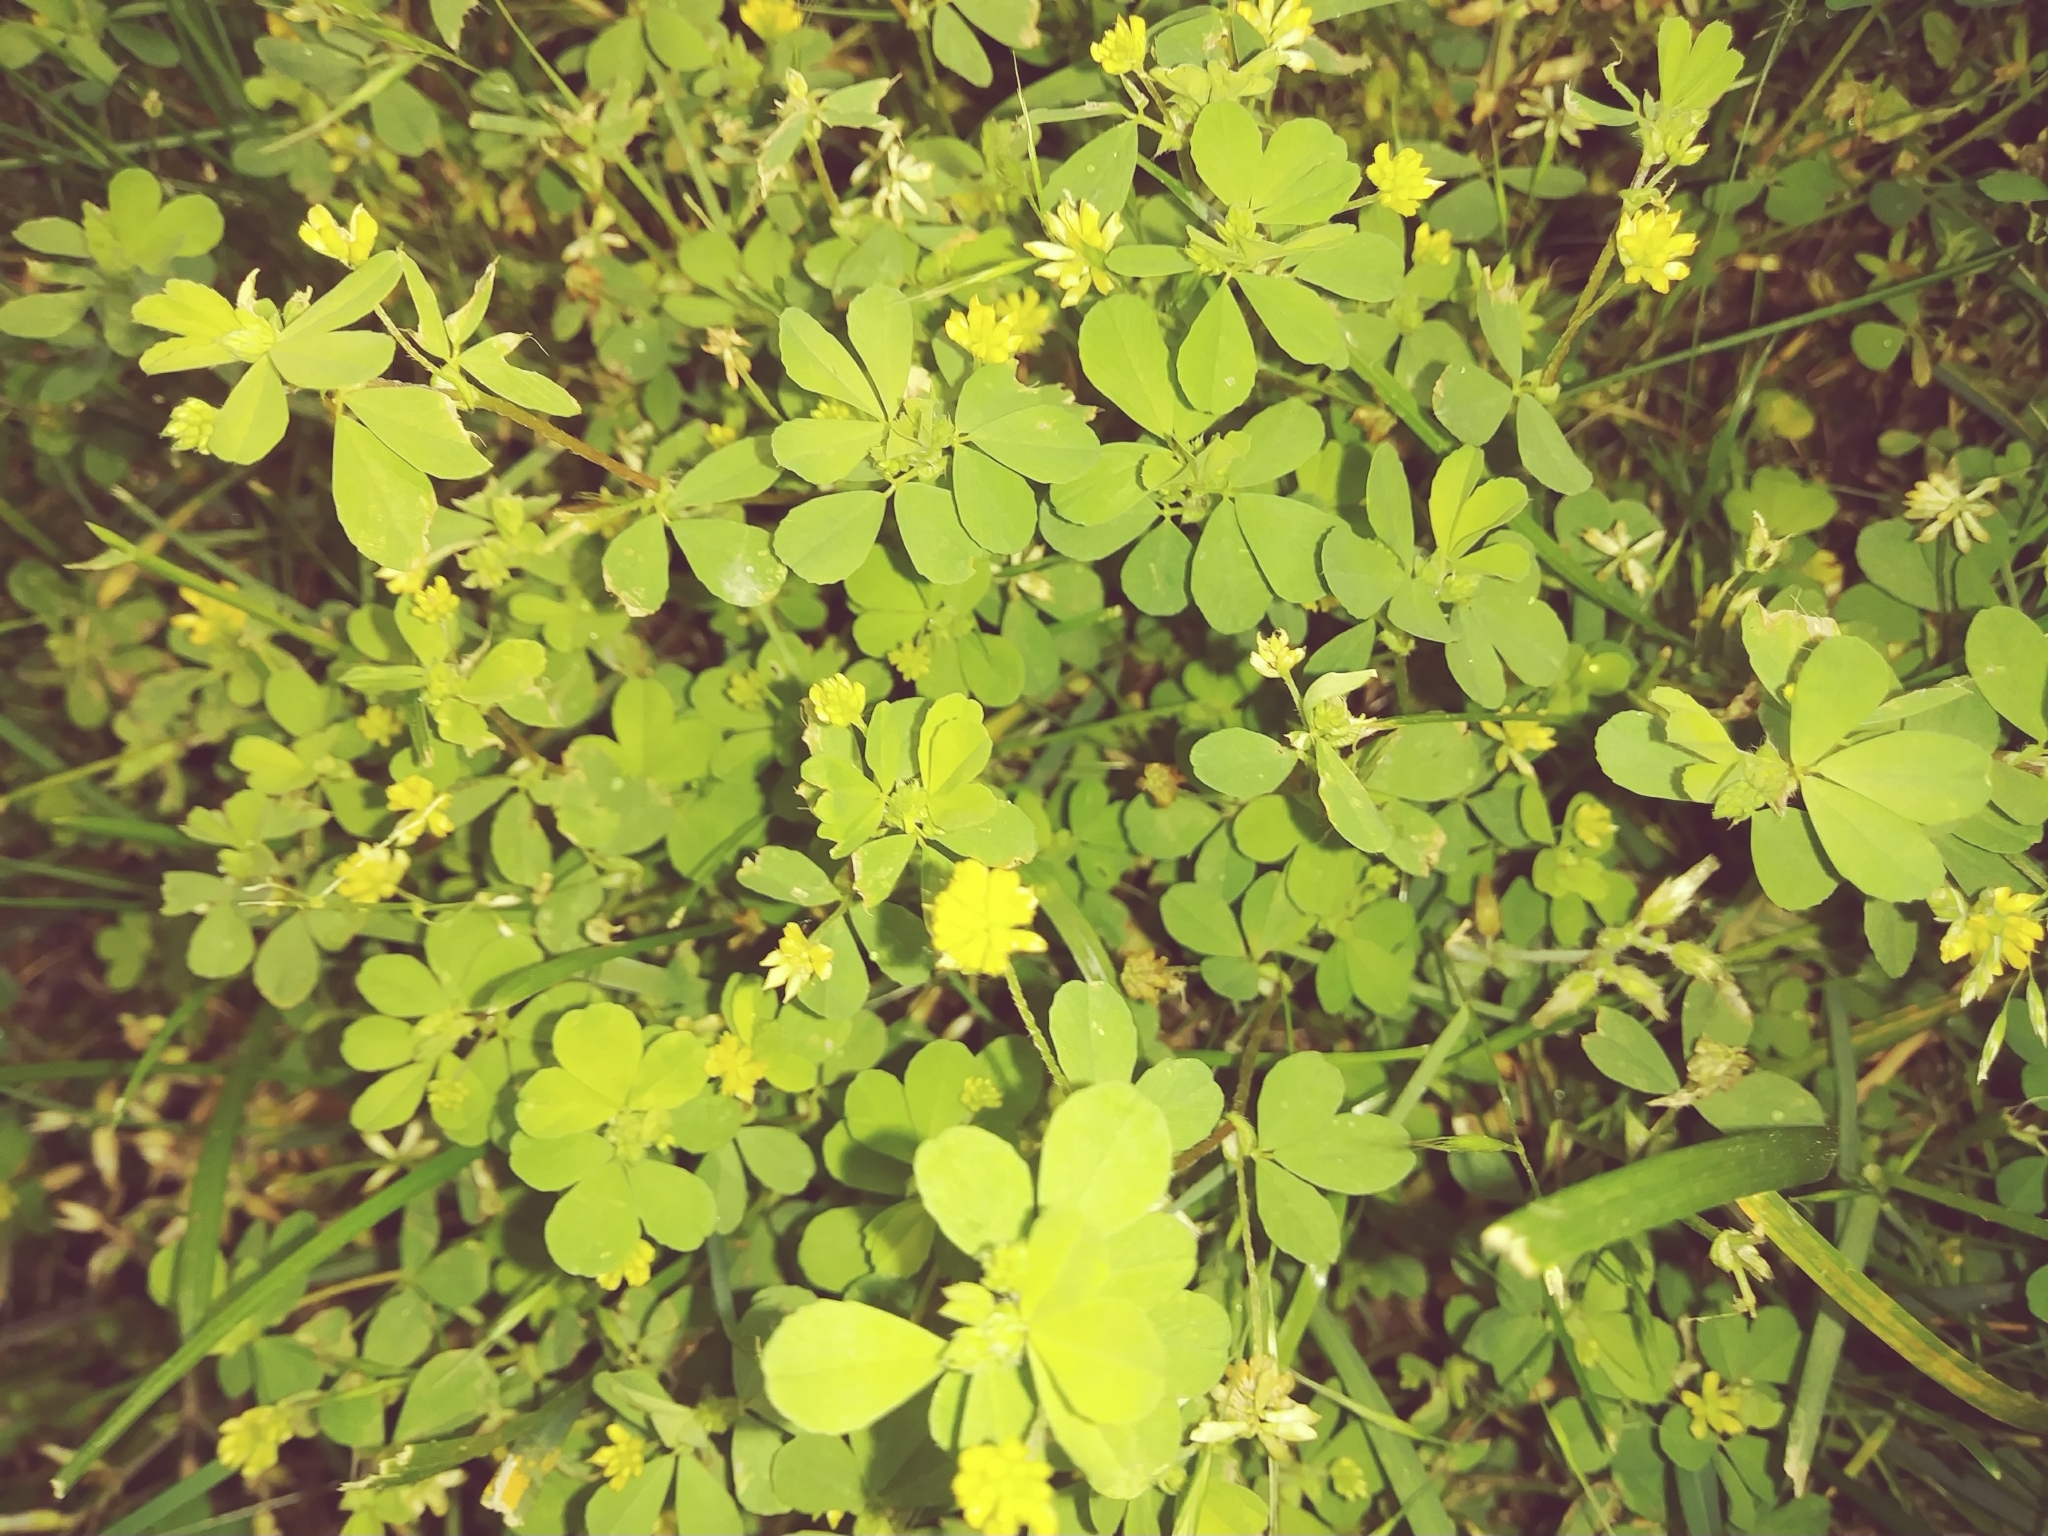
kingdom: Plantae
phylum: Tracheophyta
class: Magnoliopsida
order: Fabales
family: Fabaceae
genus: Trifolium
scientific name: Trifolium dubium
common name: Suckling clover
